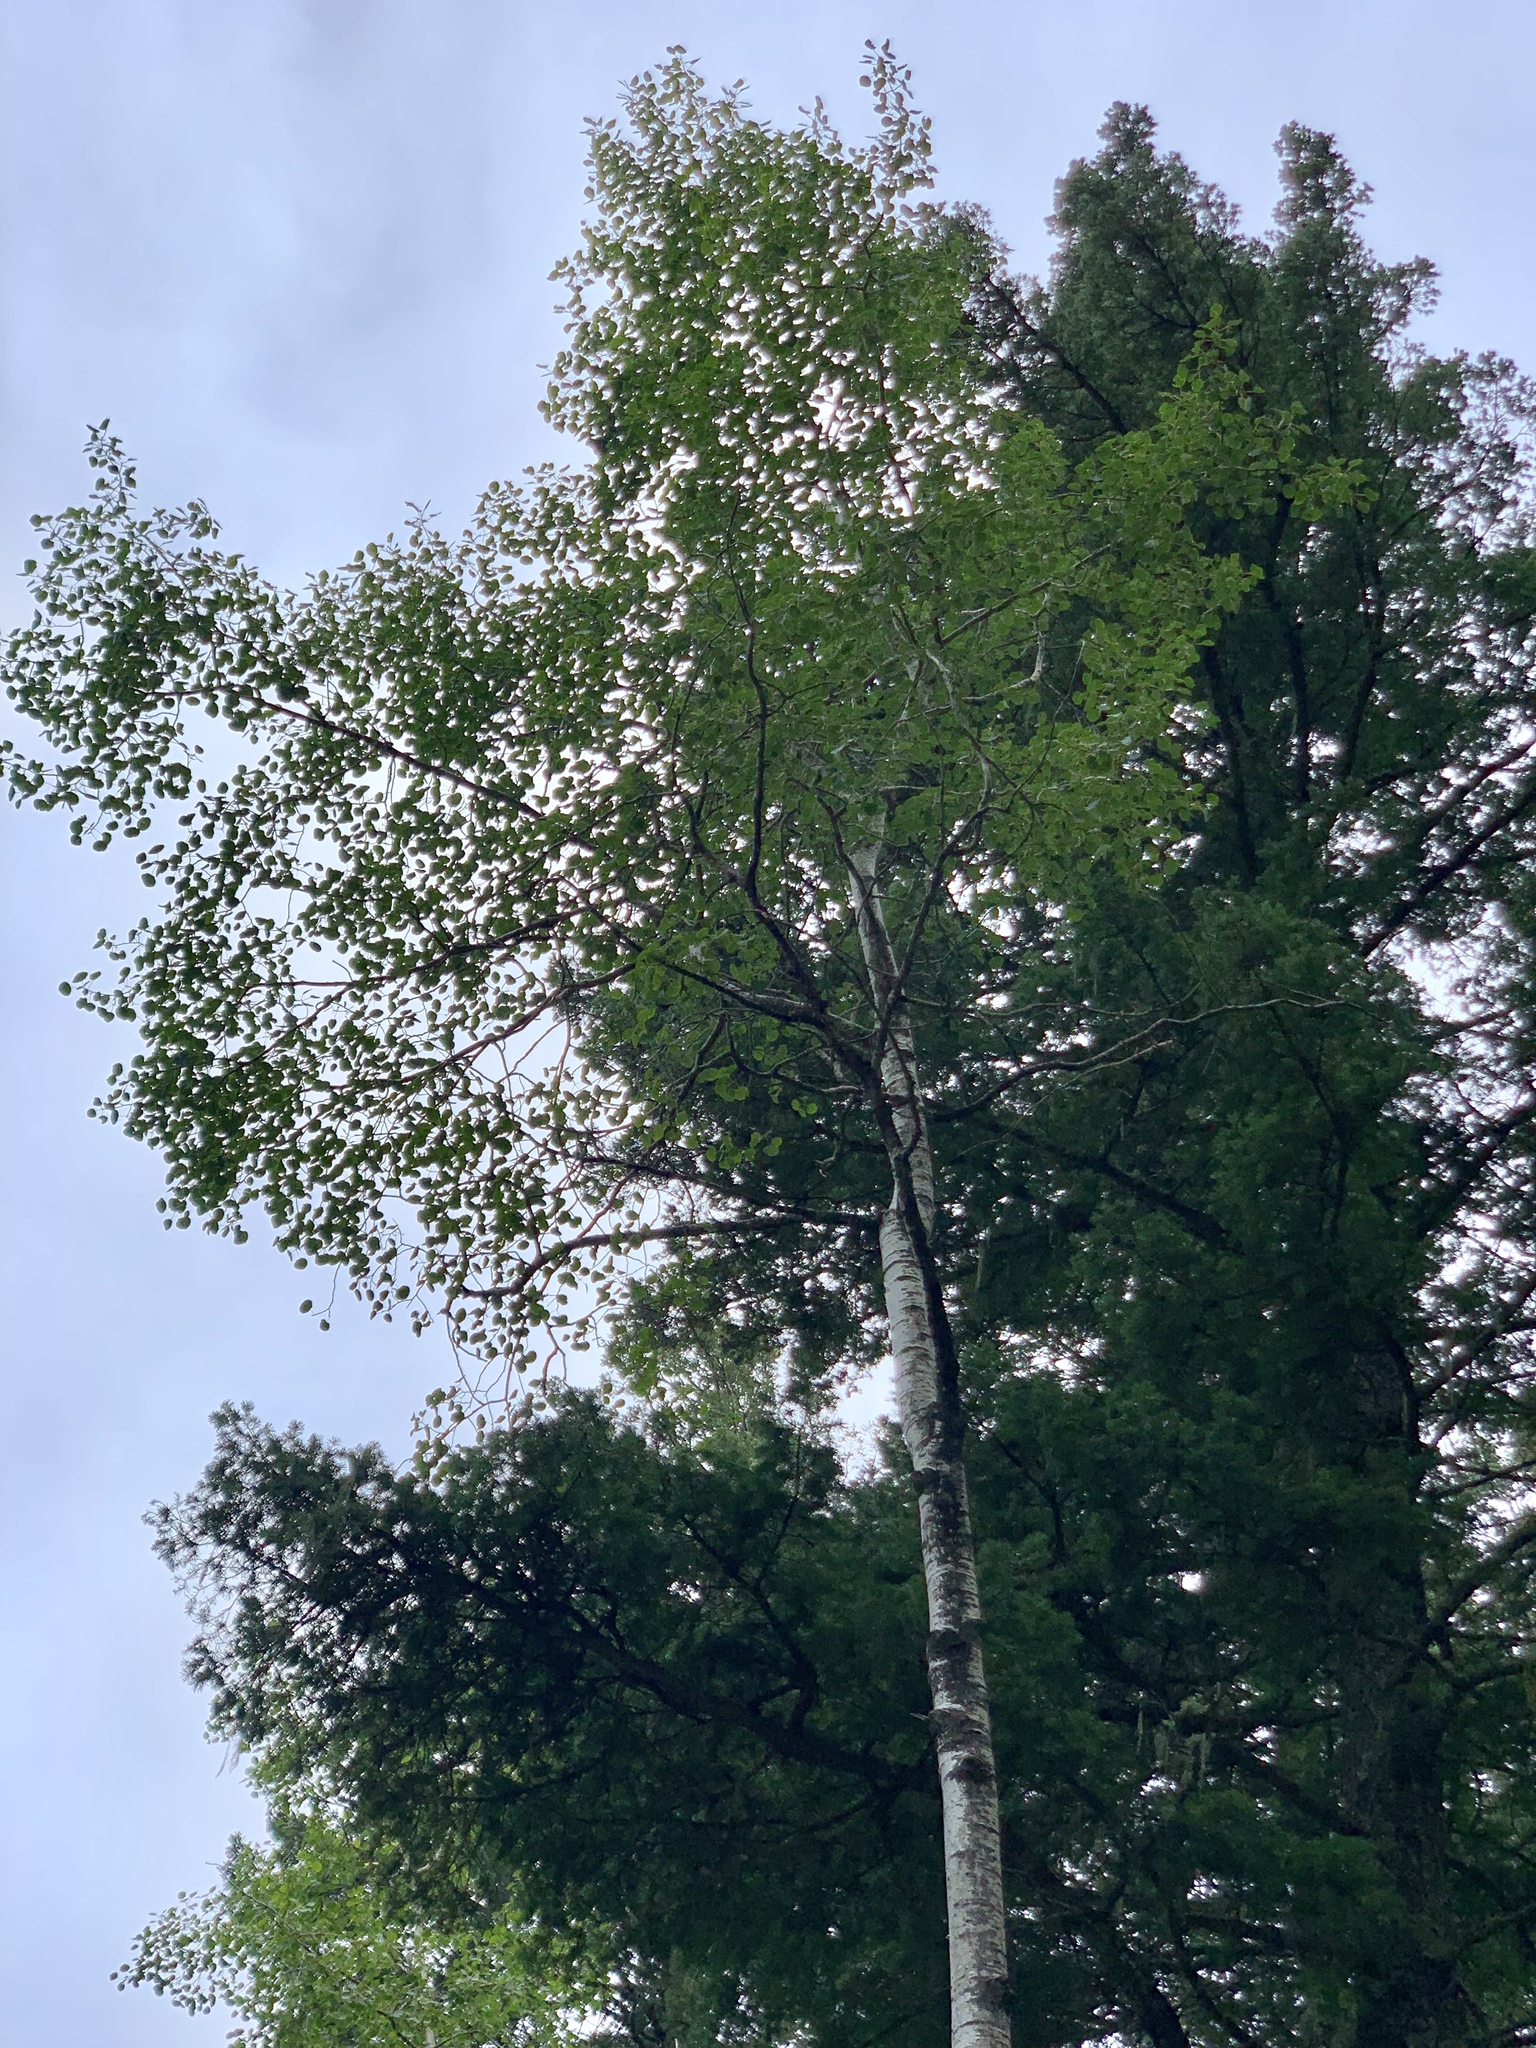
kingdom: Plantae
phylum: Tracheophyta
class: Magnoliopsida
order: Malpighiales
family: Salicaceae
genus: Populus
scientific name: Populus tremuloides
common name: Quaking aspen
